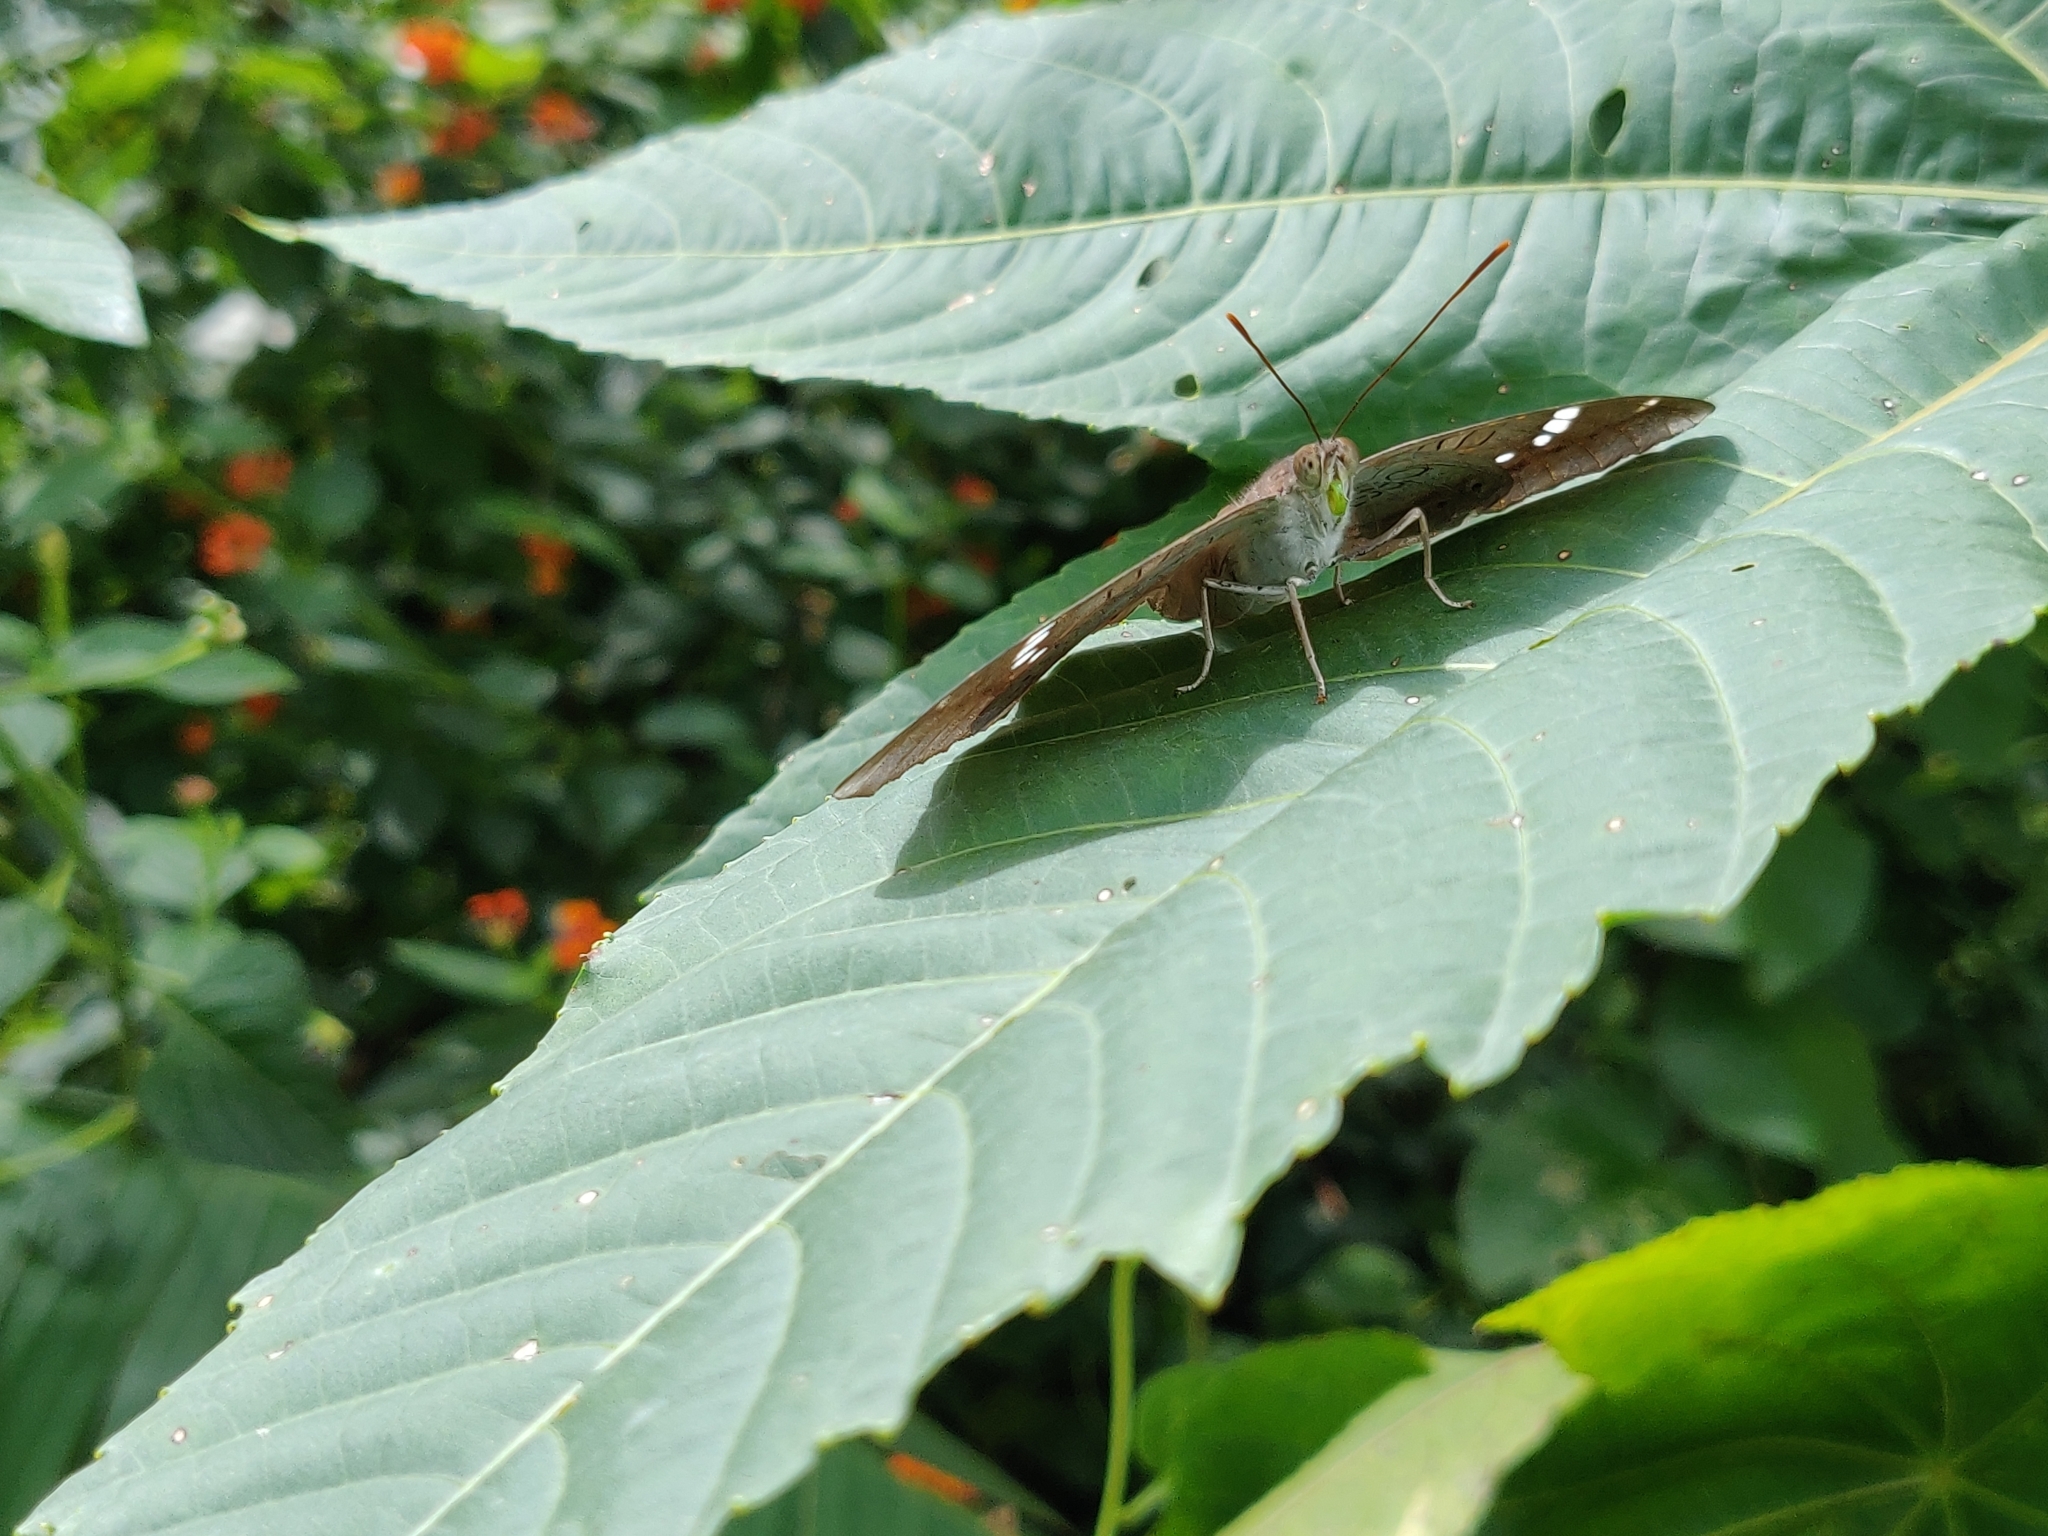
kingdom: Animalia
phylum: Arthropoda
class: Insecta
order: Lepidoptera
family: Nymphalidae
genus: Euthalia
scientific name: Euthalia aconthea
